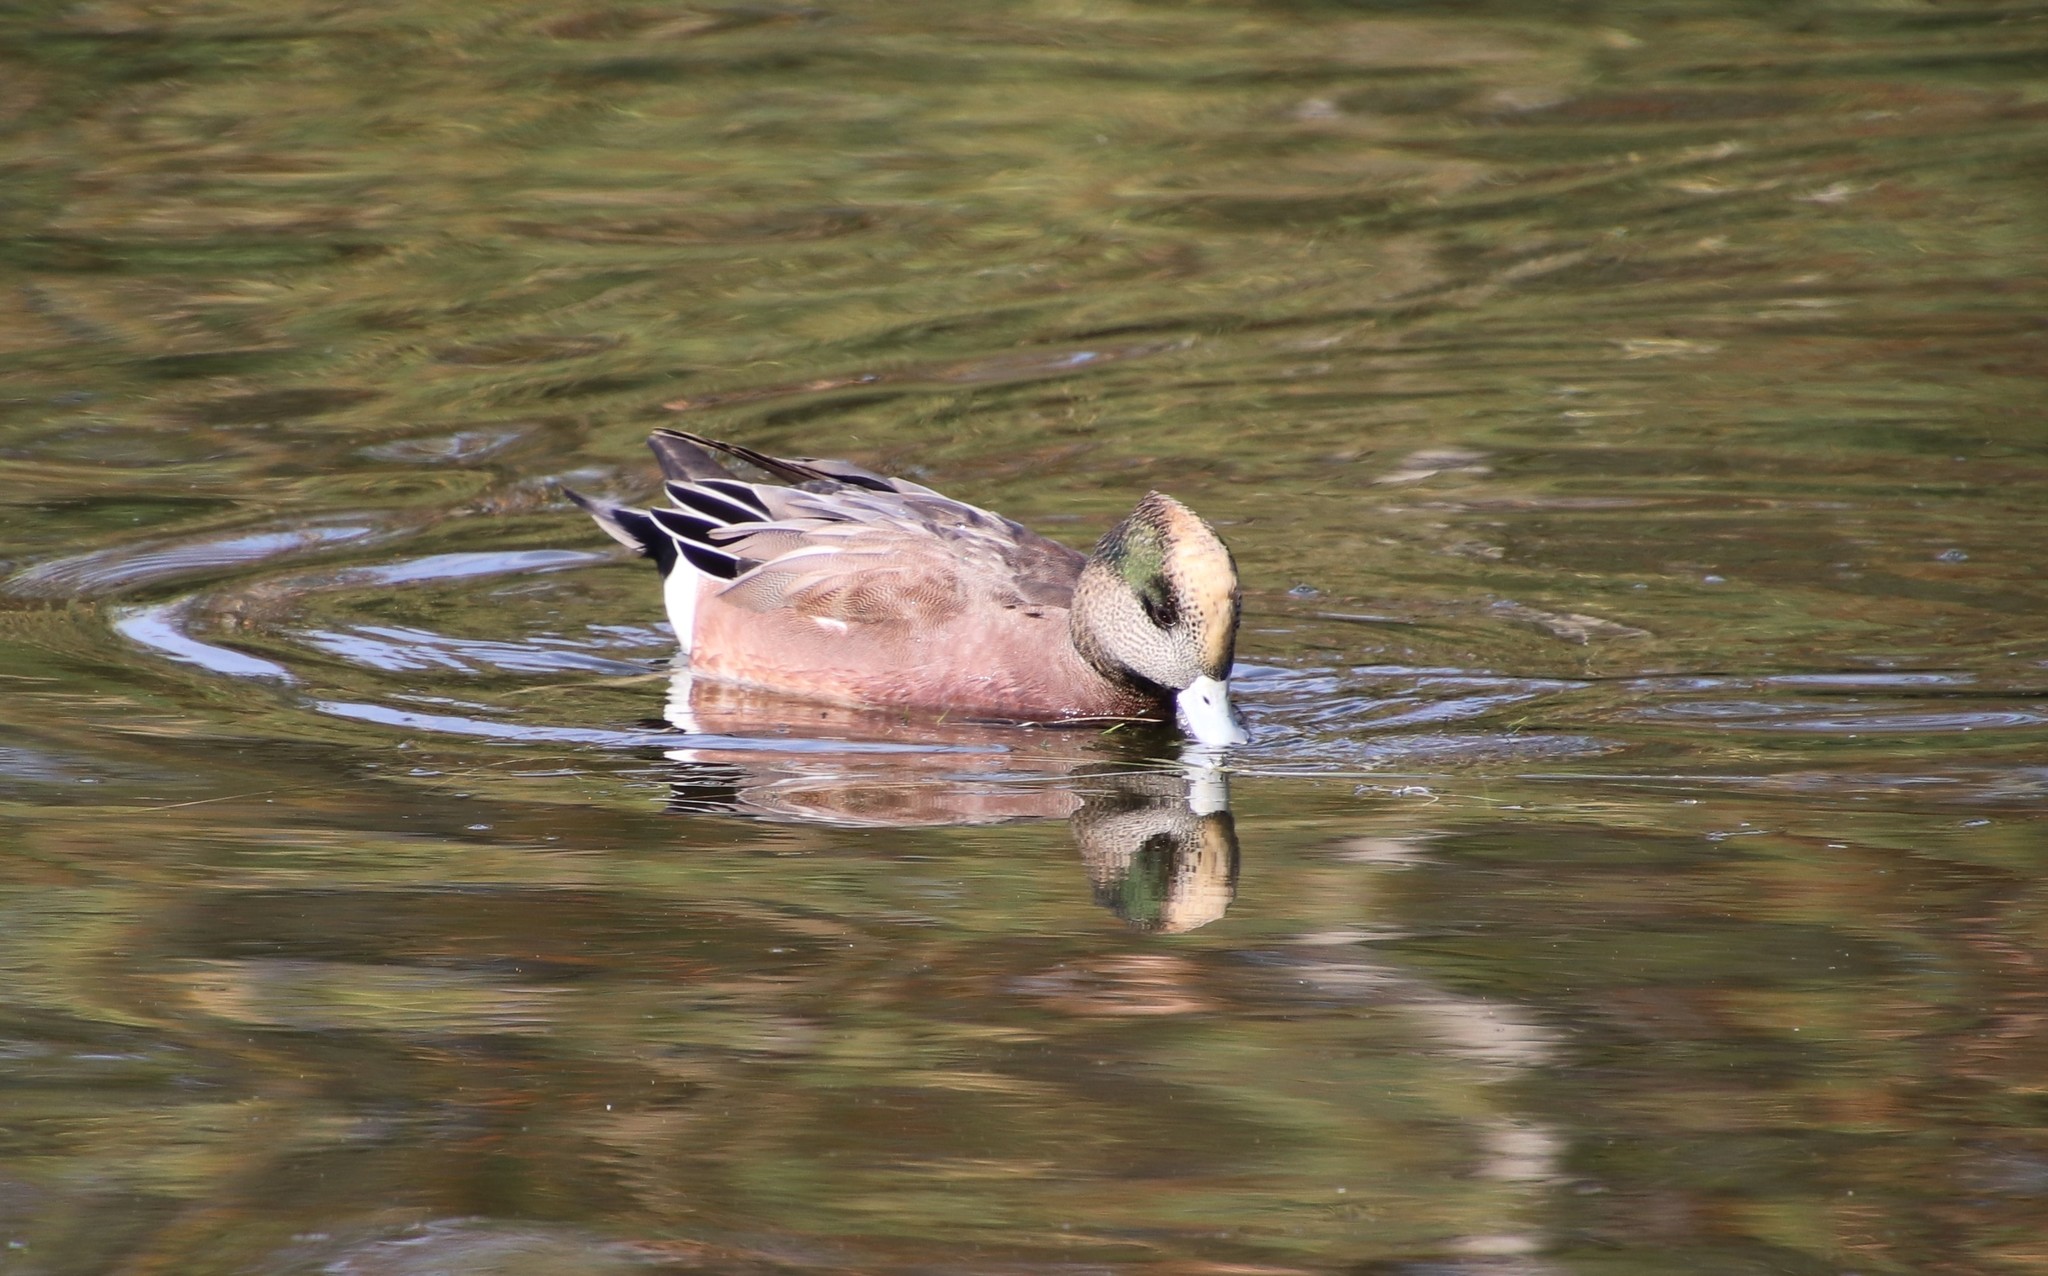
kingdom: Animalia
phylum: Chordata
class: Aves
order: Anseriformes
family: Anatidae
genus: Mareca
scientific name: Mareca americana
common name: American wigeon
